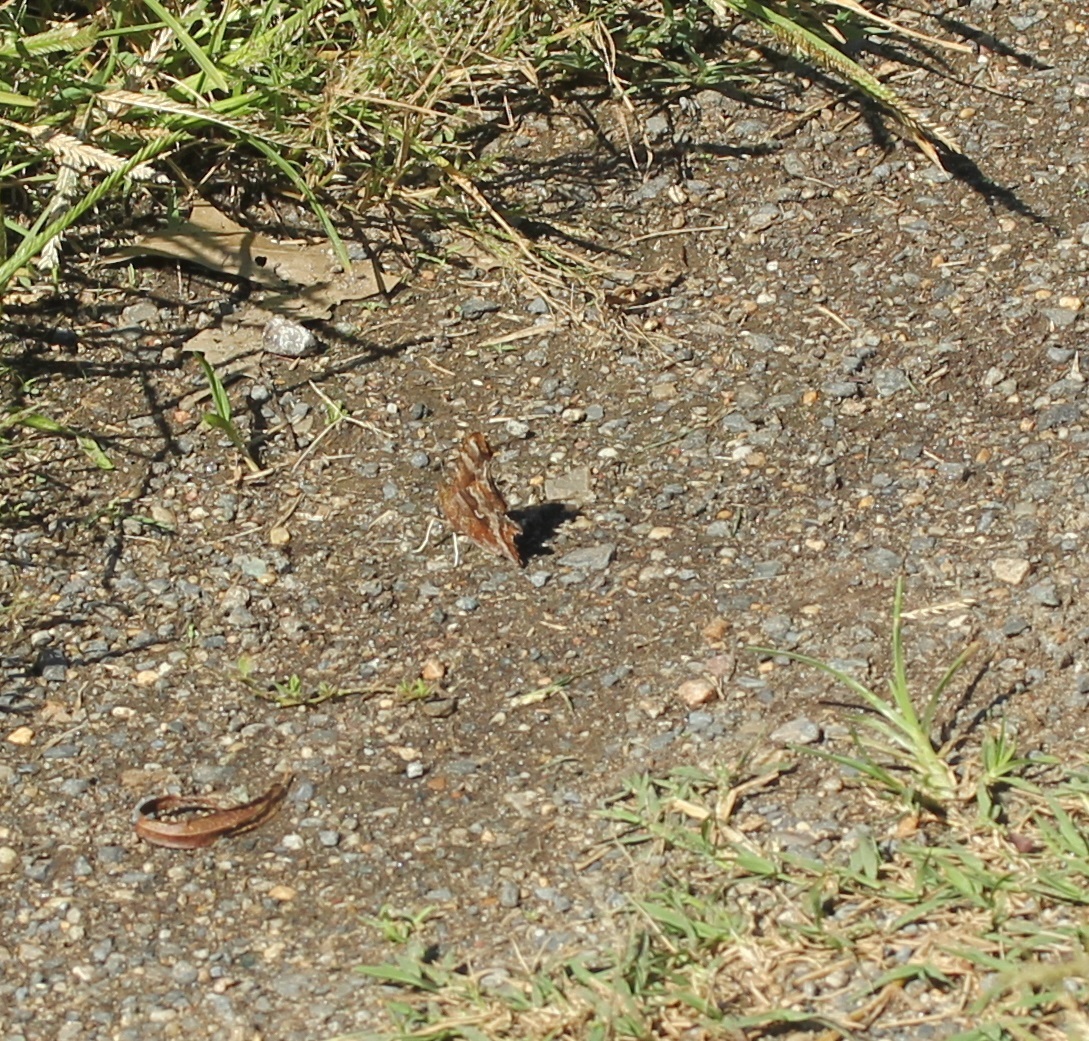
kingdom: Animalia
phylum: Arthropoda
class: Insecta
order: Lepidoptera
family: Nymphalidae
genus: Polygonia
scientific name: Polygonia comma
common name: Eastern comma
